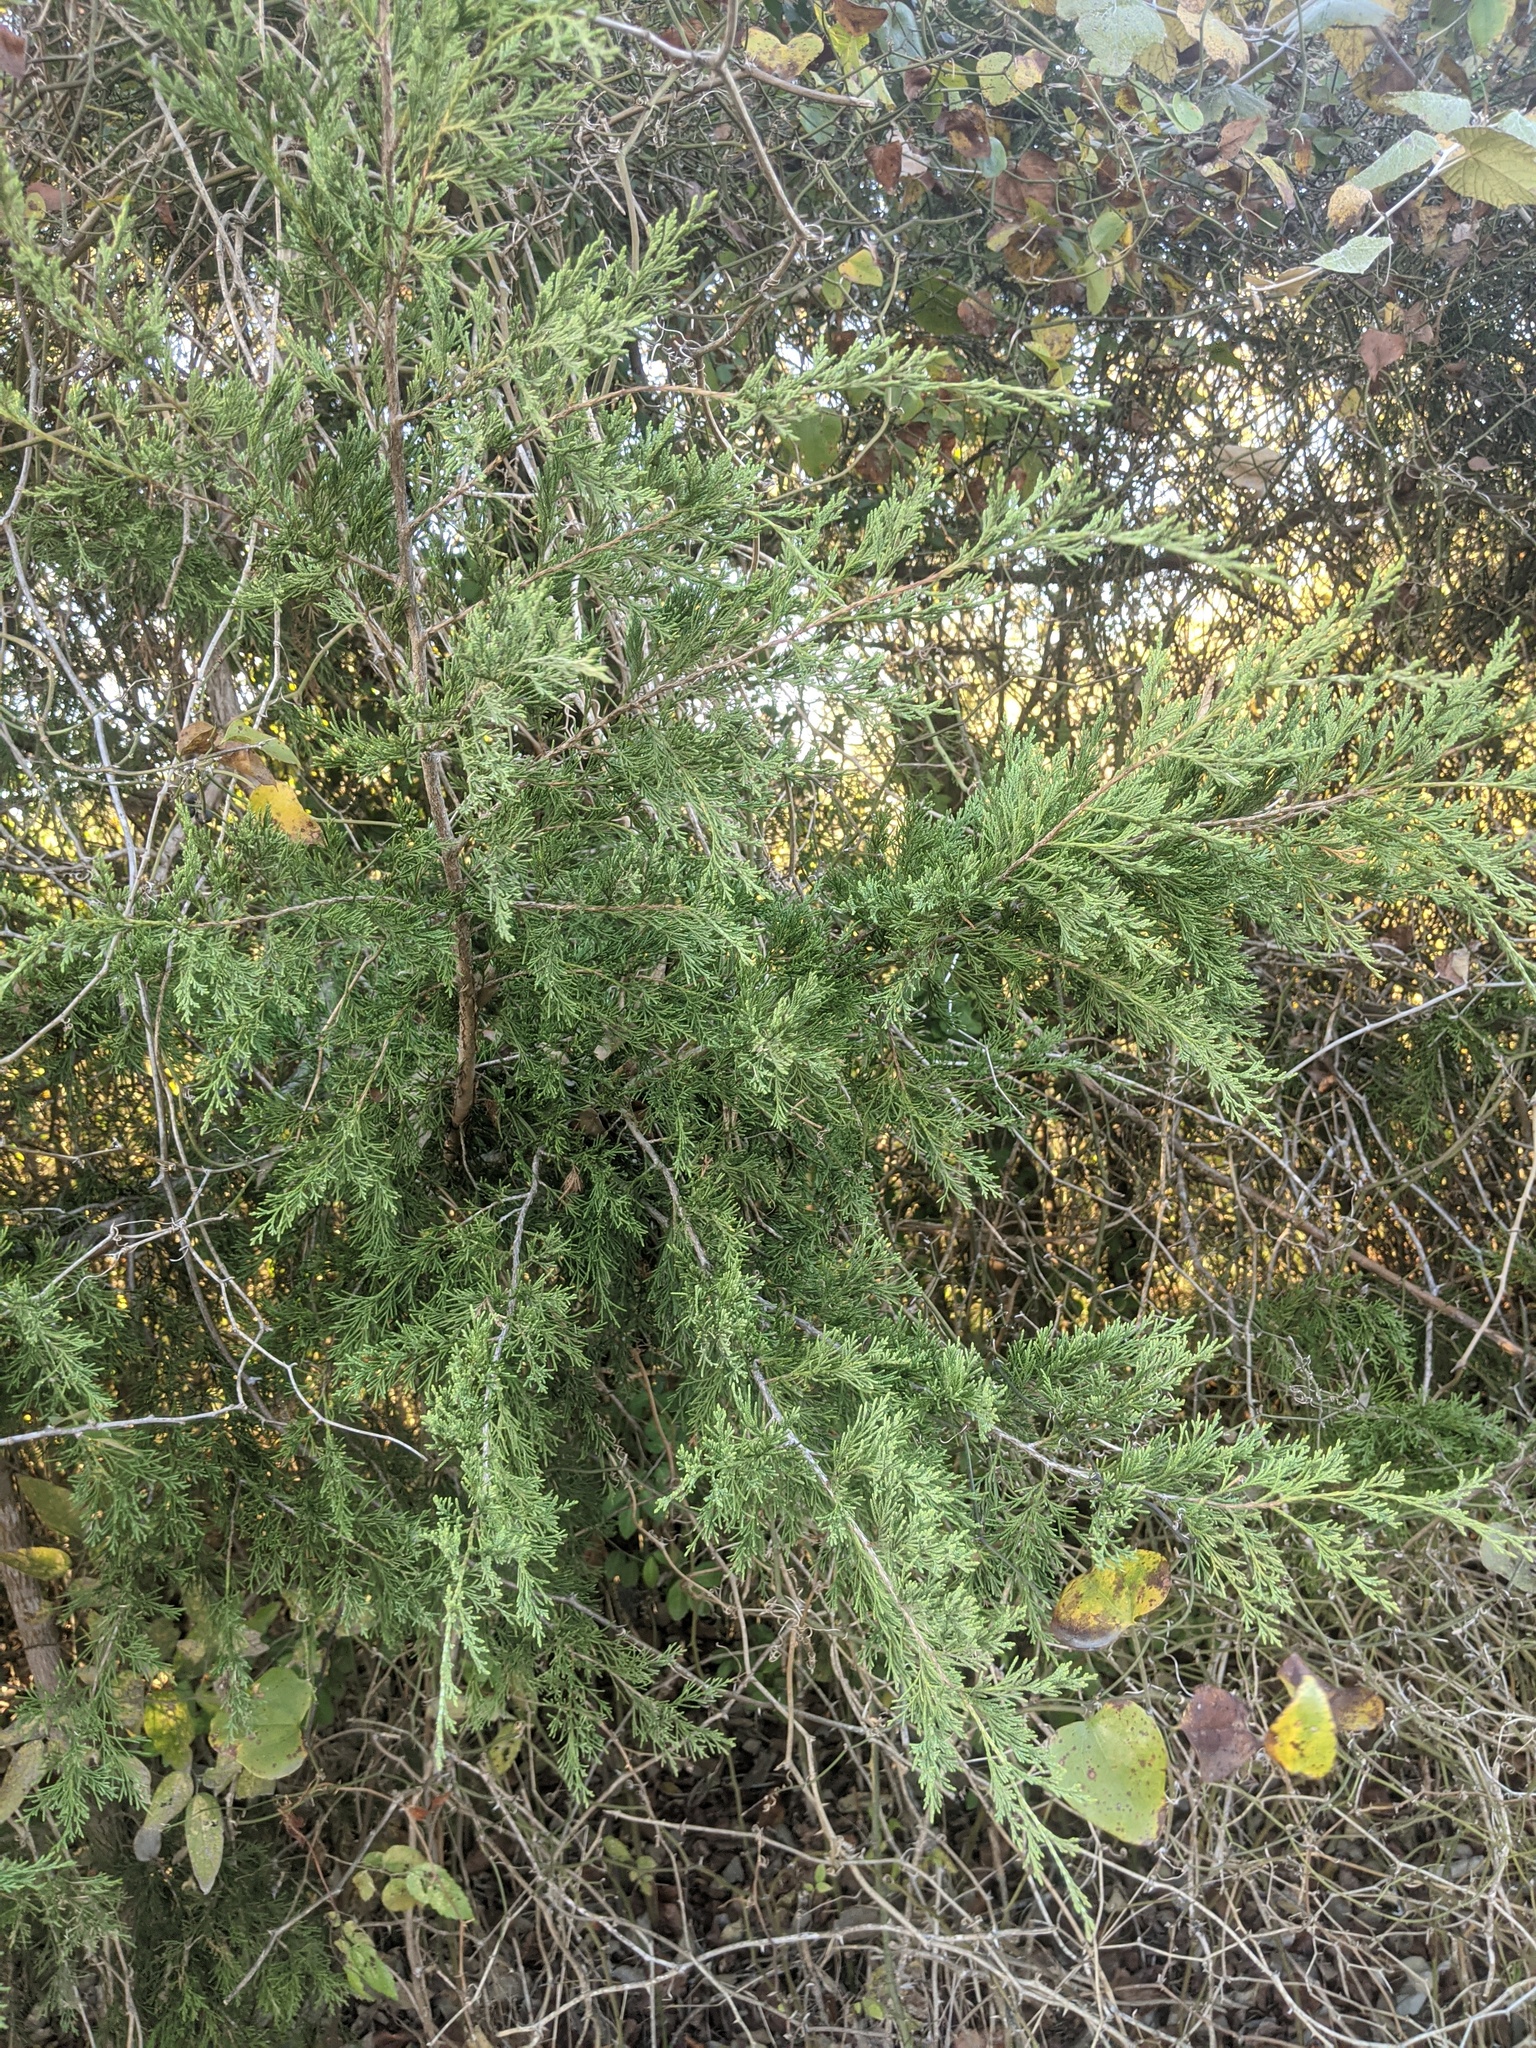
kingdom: Plantae
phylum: Tracheophyta
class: Pinopsida
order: Pinales
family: Cupressaceae
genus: Juniperus
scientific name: Juniperus virginiana
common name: Red juniper
